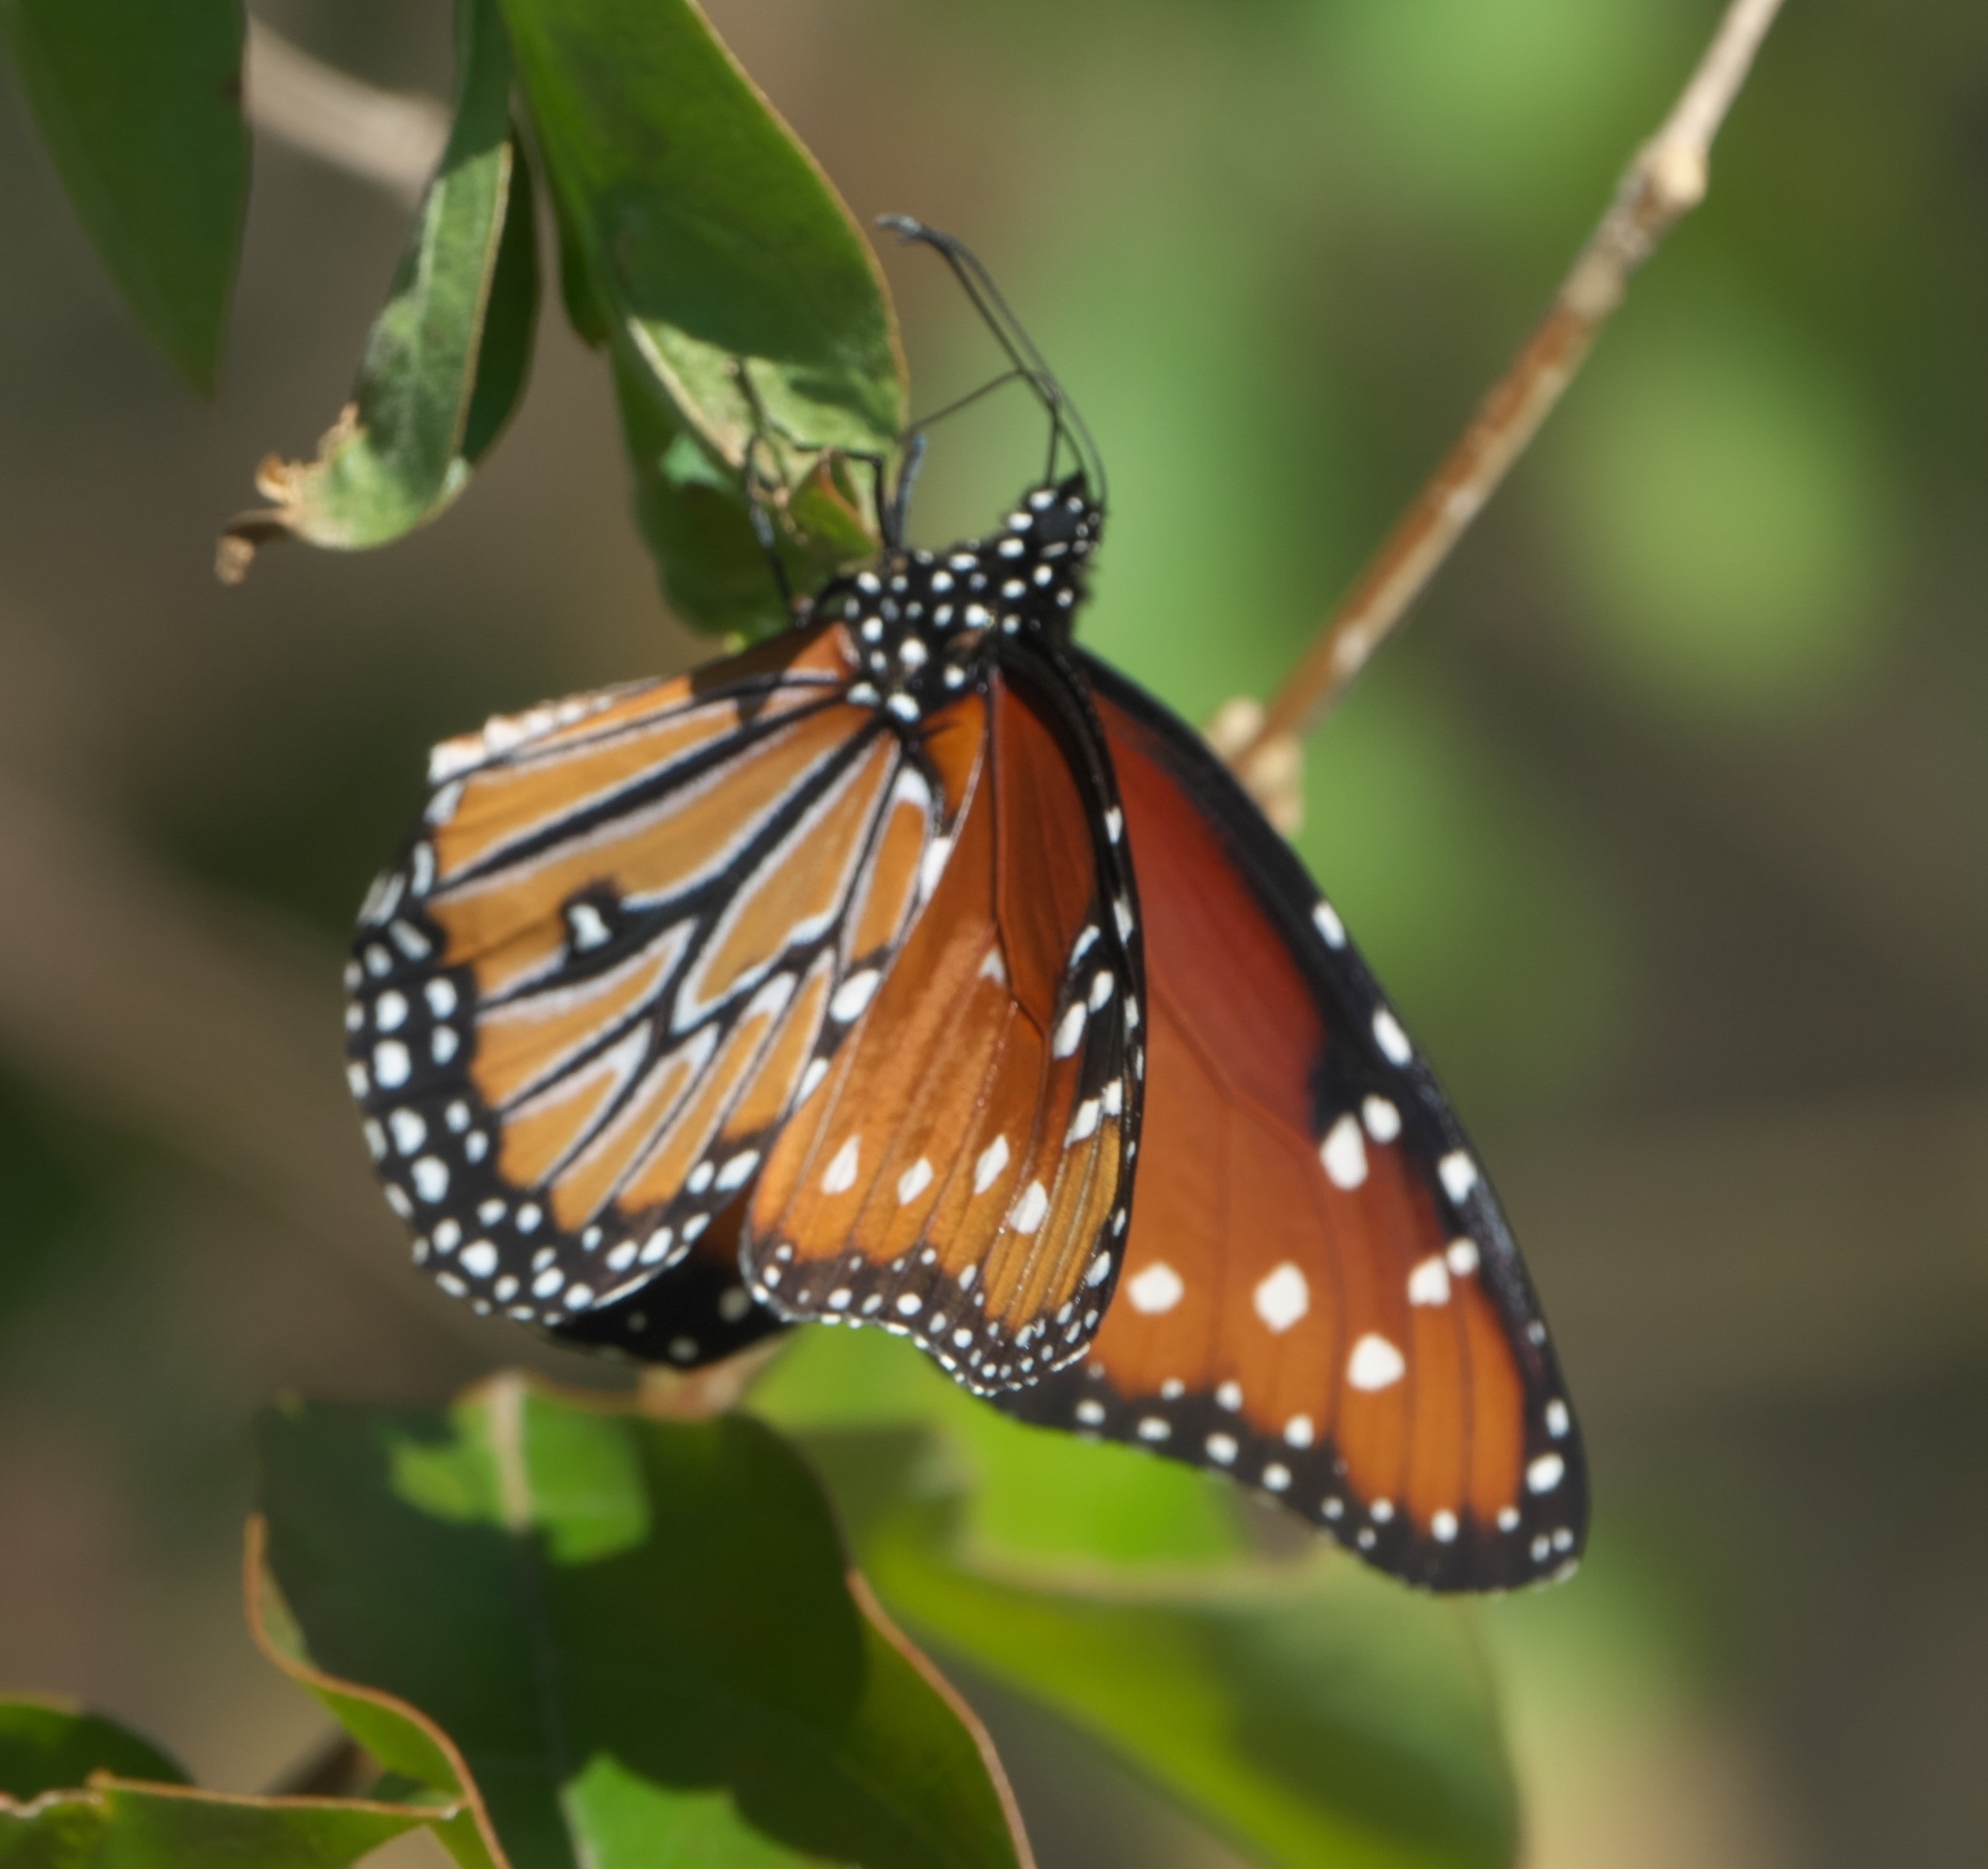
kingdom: Animalia
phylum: Arthropoda
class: Insecta
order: Lepidoptera
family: Nymphalidae
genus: Danaus
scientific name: Danaus gilippus
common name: Queen
